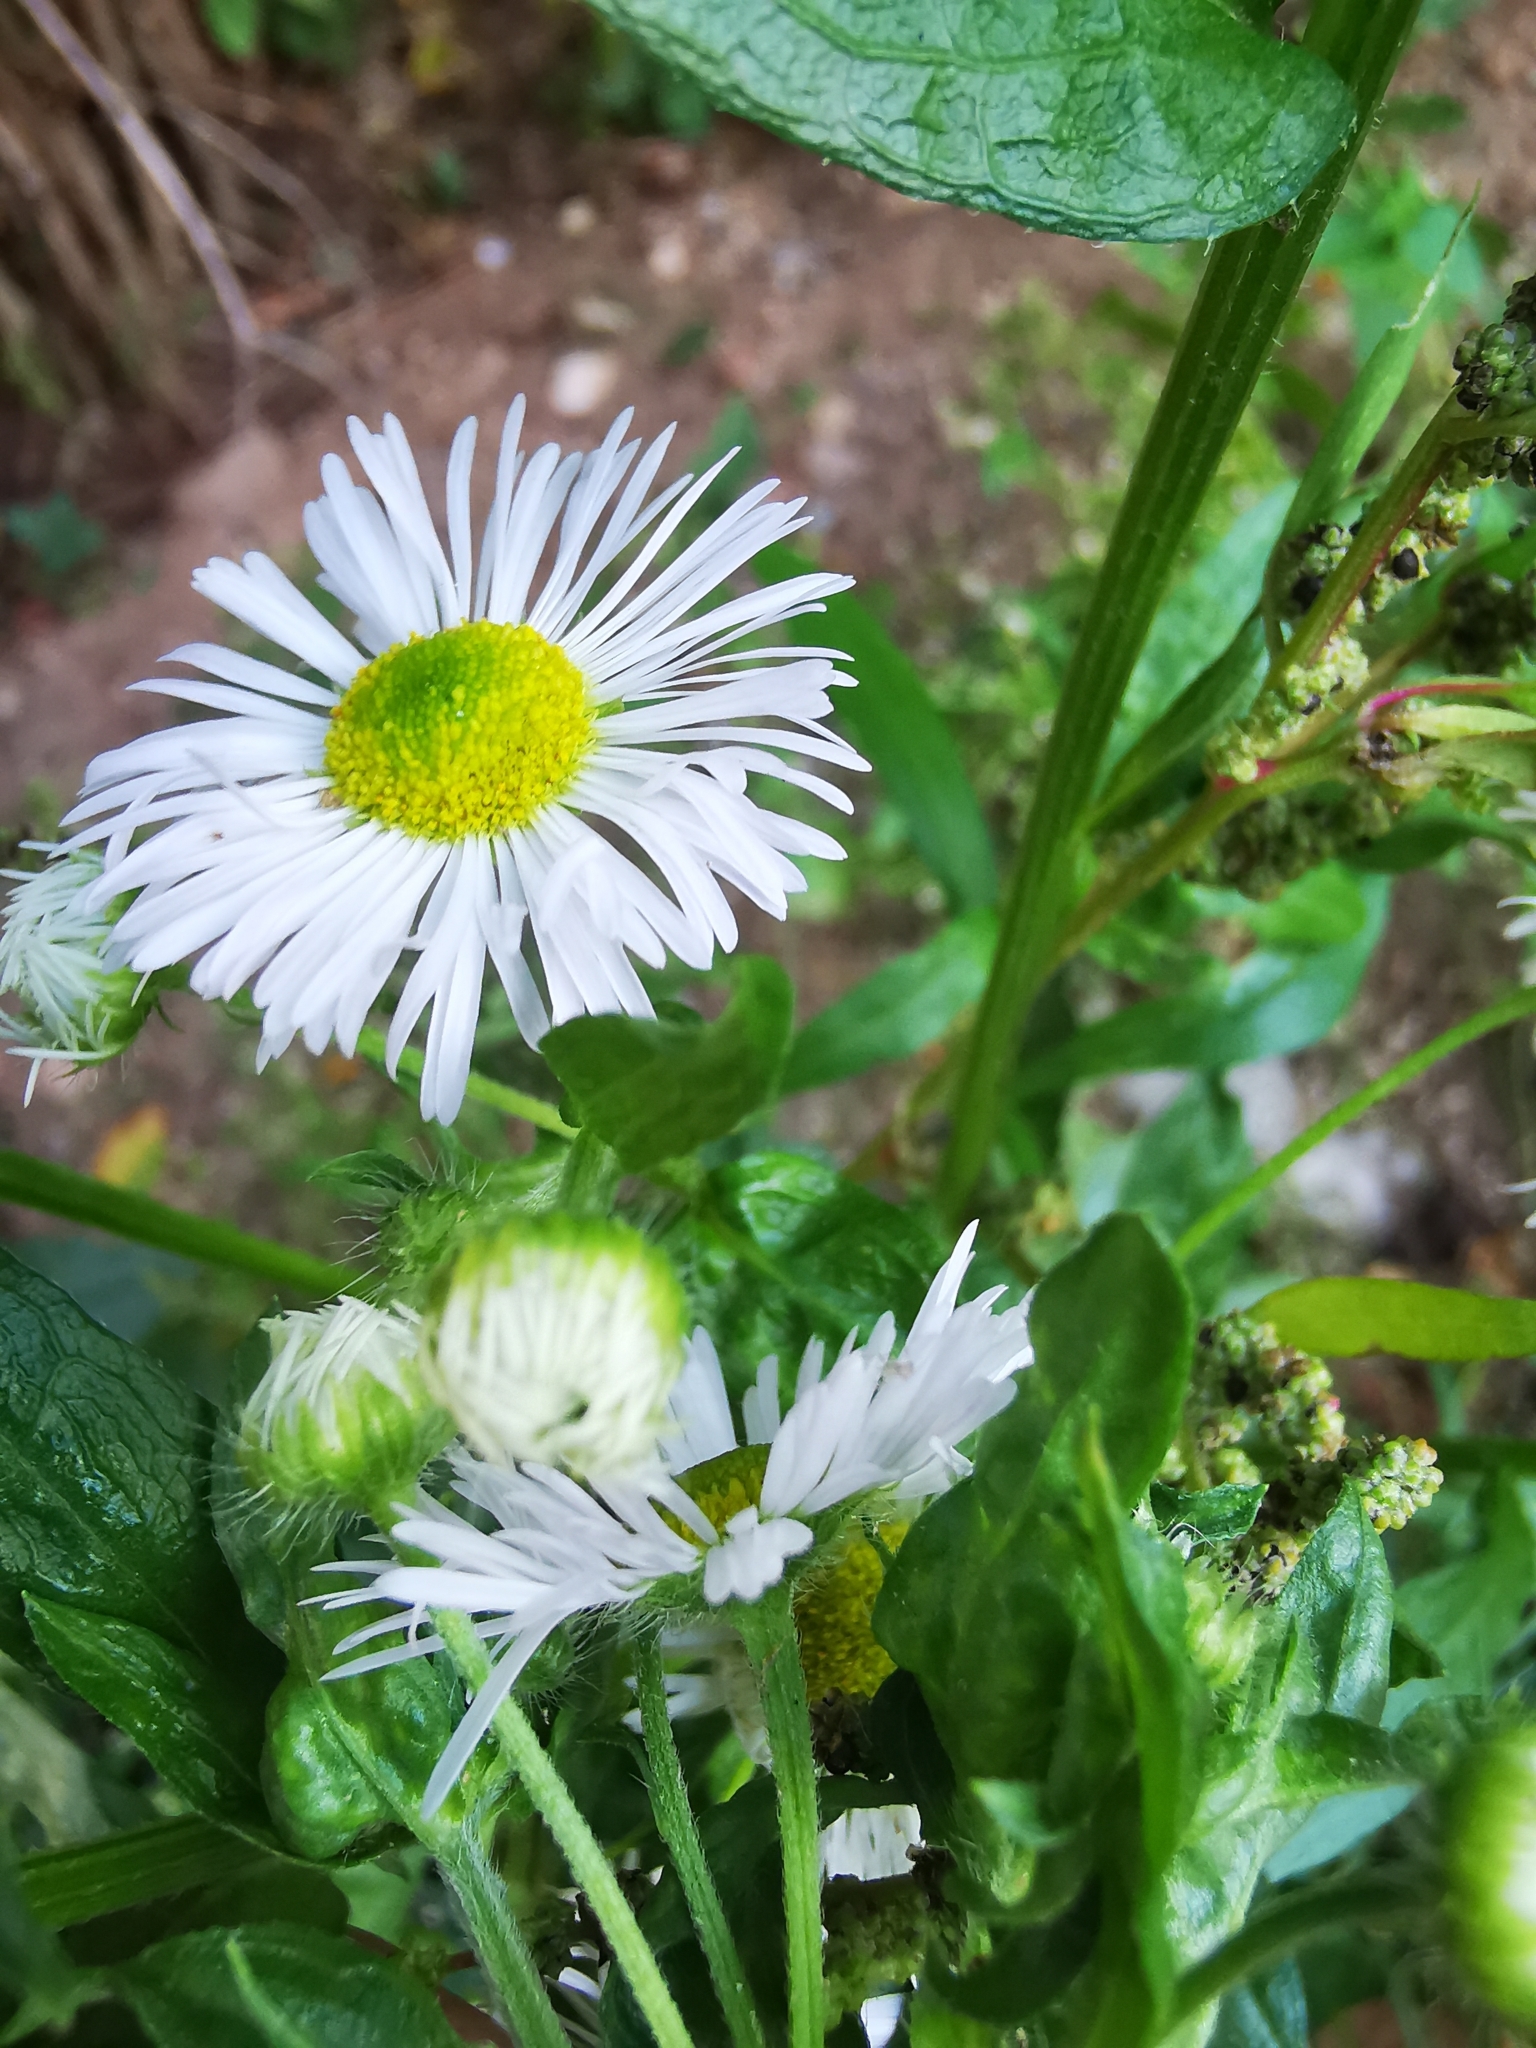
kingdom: Plantae
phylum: Tracheophyta
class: Magnoliopsida
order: Asterales
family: Asteraceae
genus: Erigeron
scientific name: Erigeron annuus
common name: Tall fleabane
